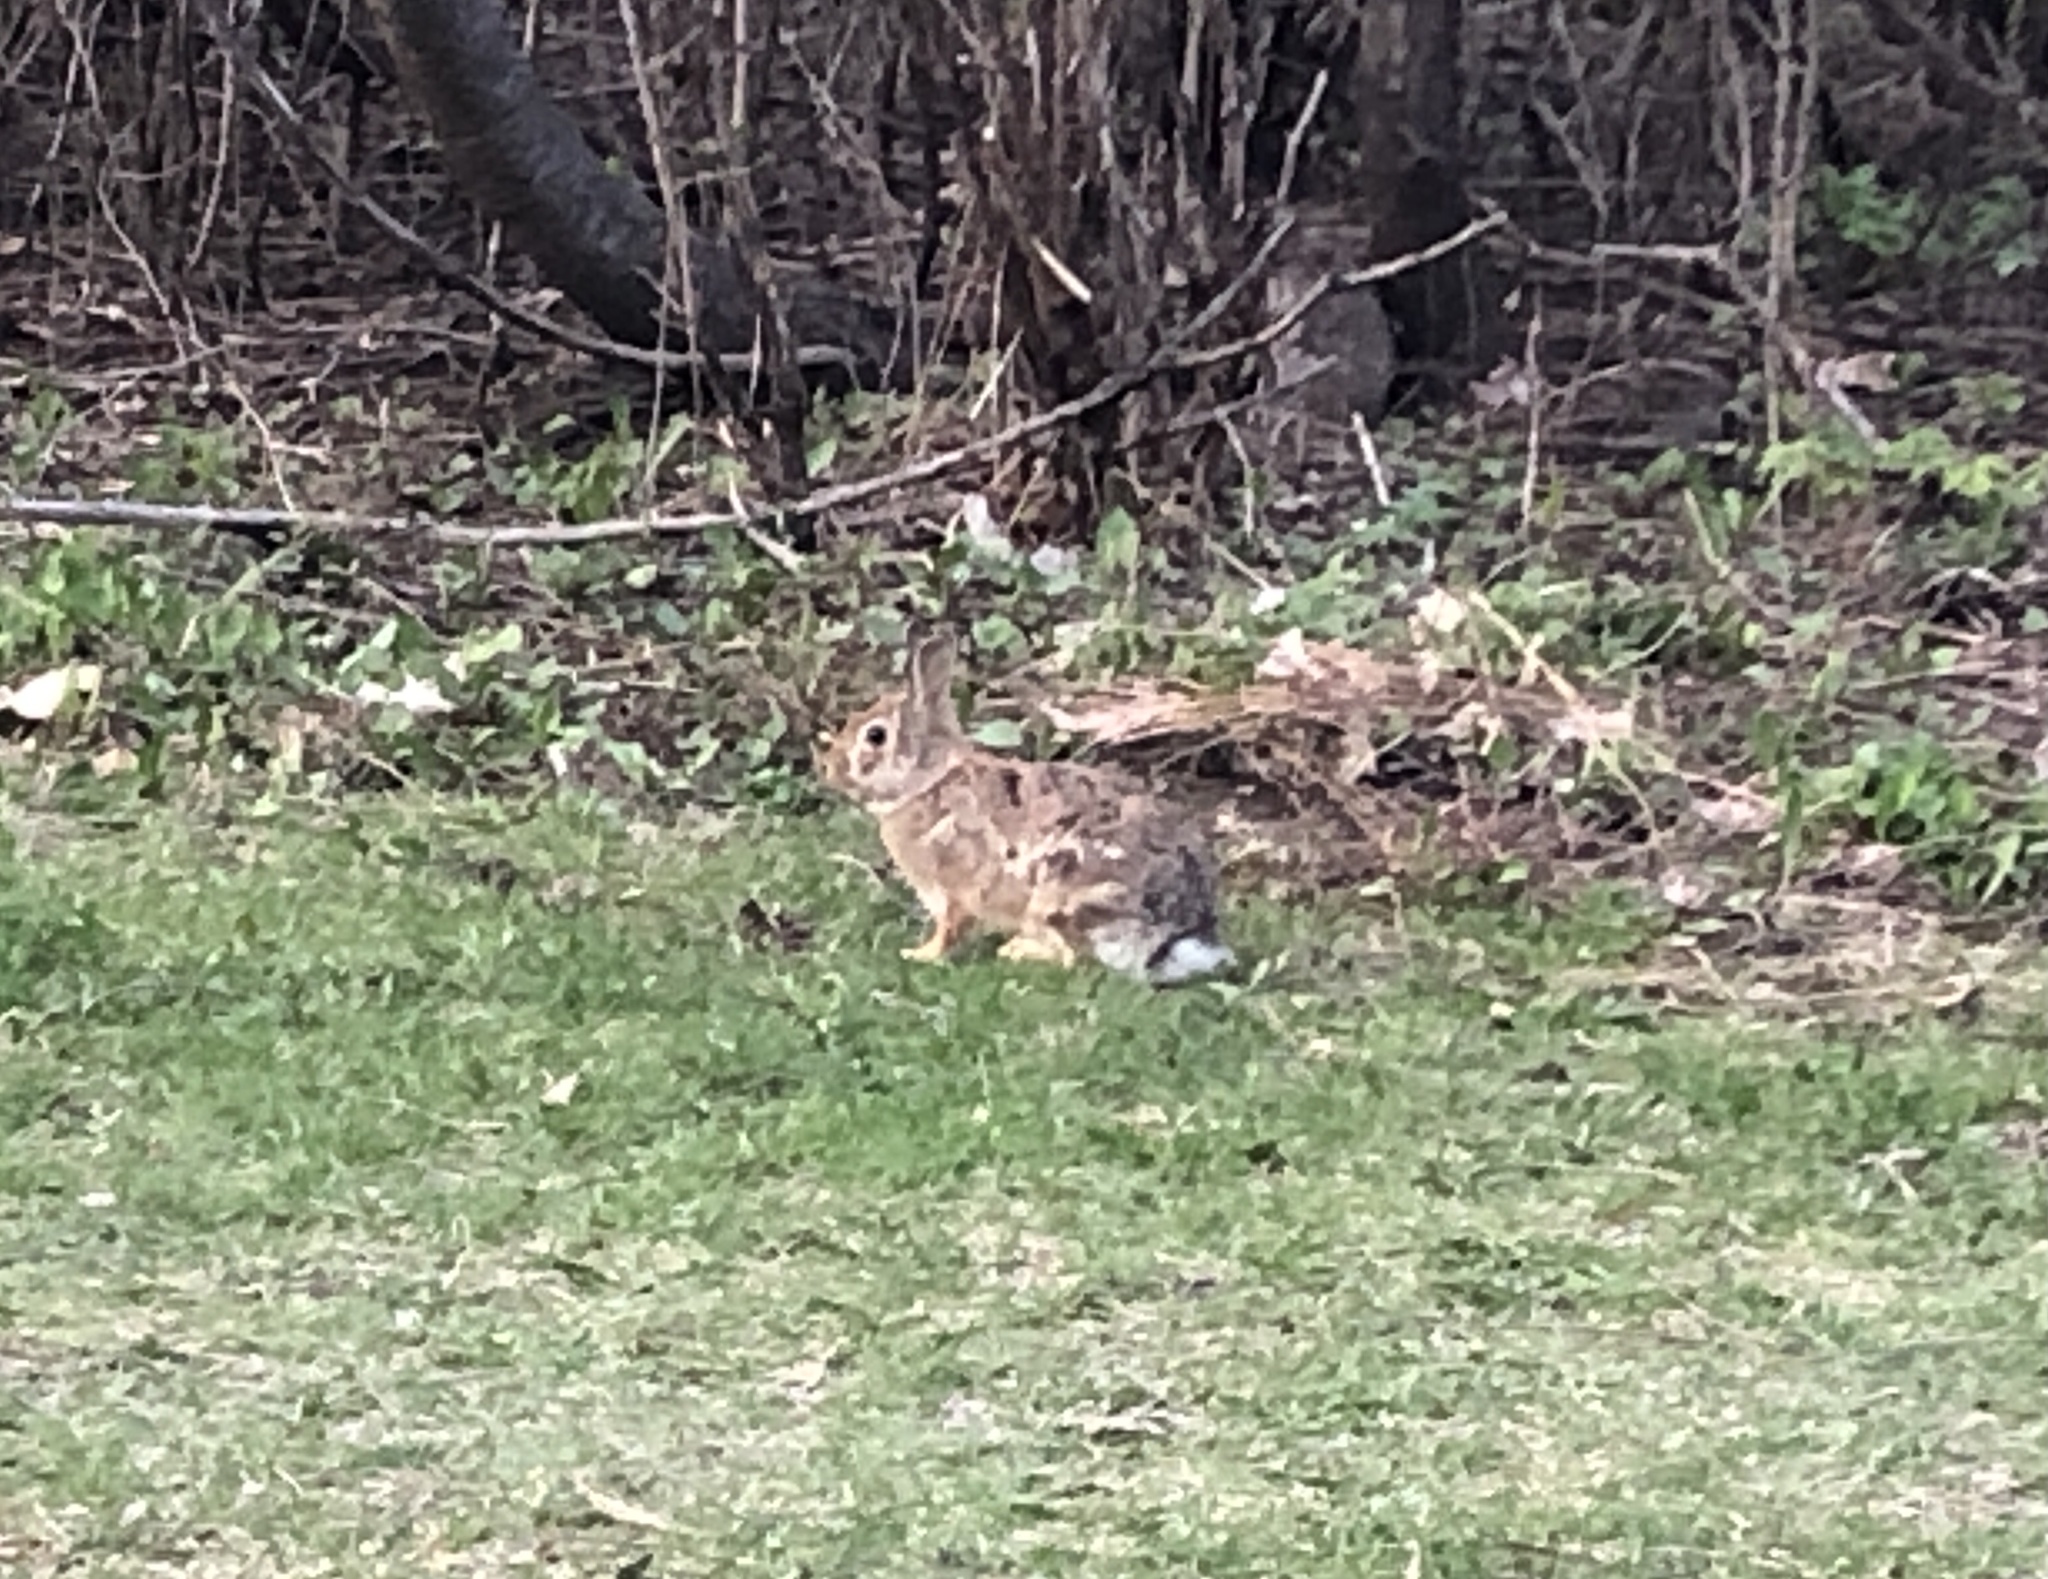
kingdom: Animalia
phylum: Chordata
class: Mammalia
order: Lagomorpha
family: Leporidae
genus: Sylvilagus
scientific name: Sylvilagus floridanus
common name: Eastern cottontail
